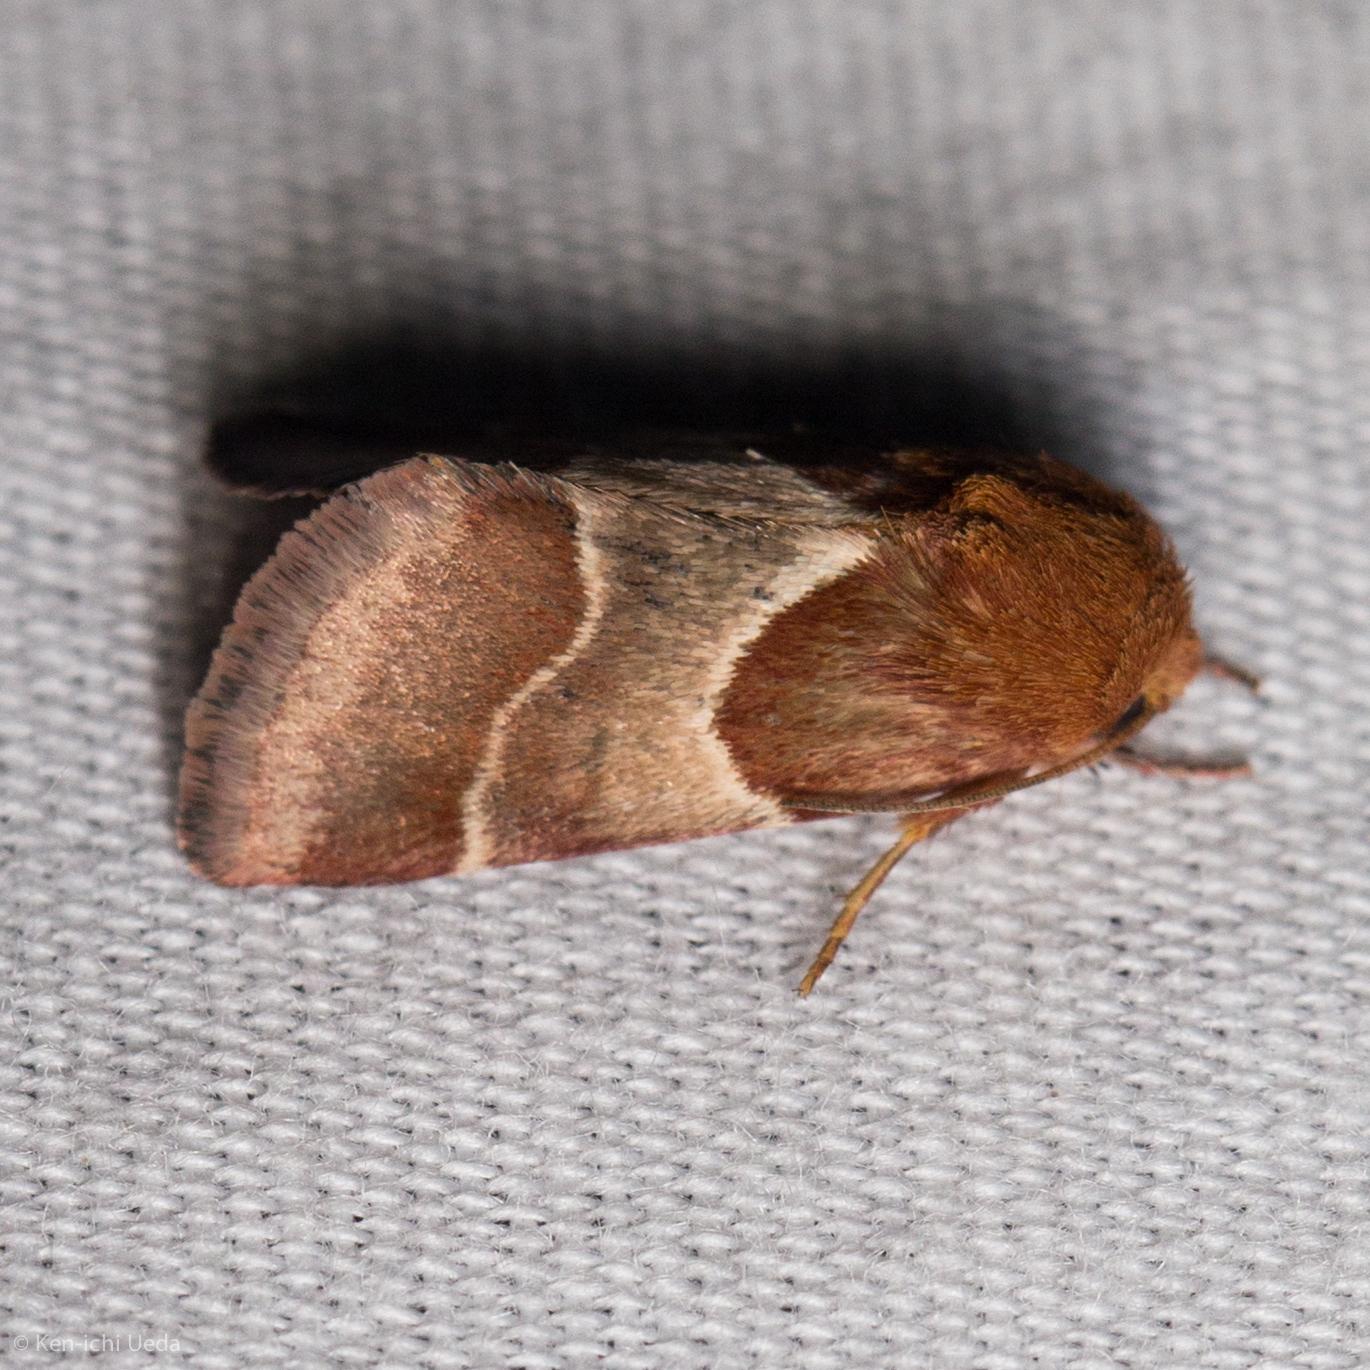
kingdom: Animalia
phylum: Arthropoda
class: Insecta
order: Lepidoptera
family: Noctuidae
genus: Schinia
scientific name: Schinia arcigera
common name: Arcigera flower moth
